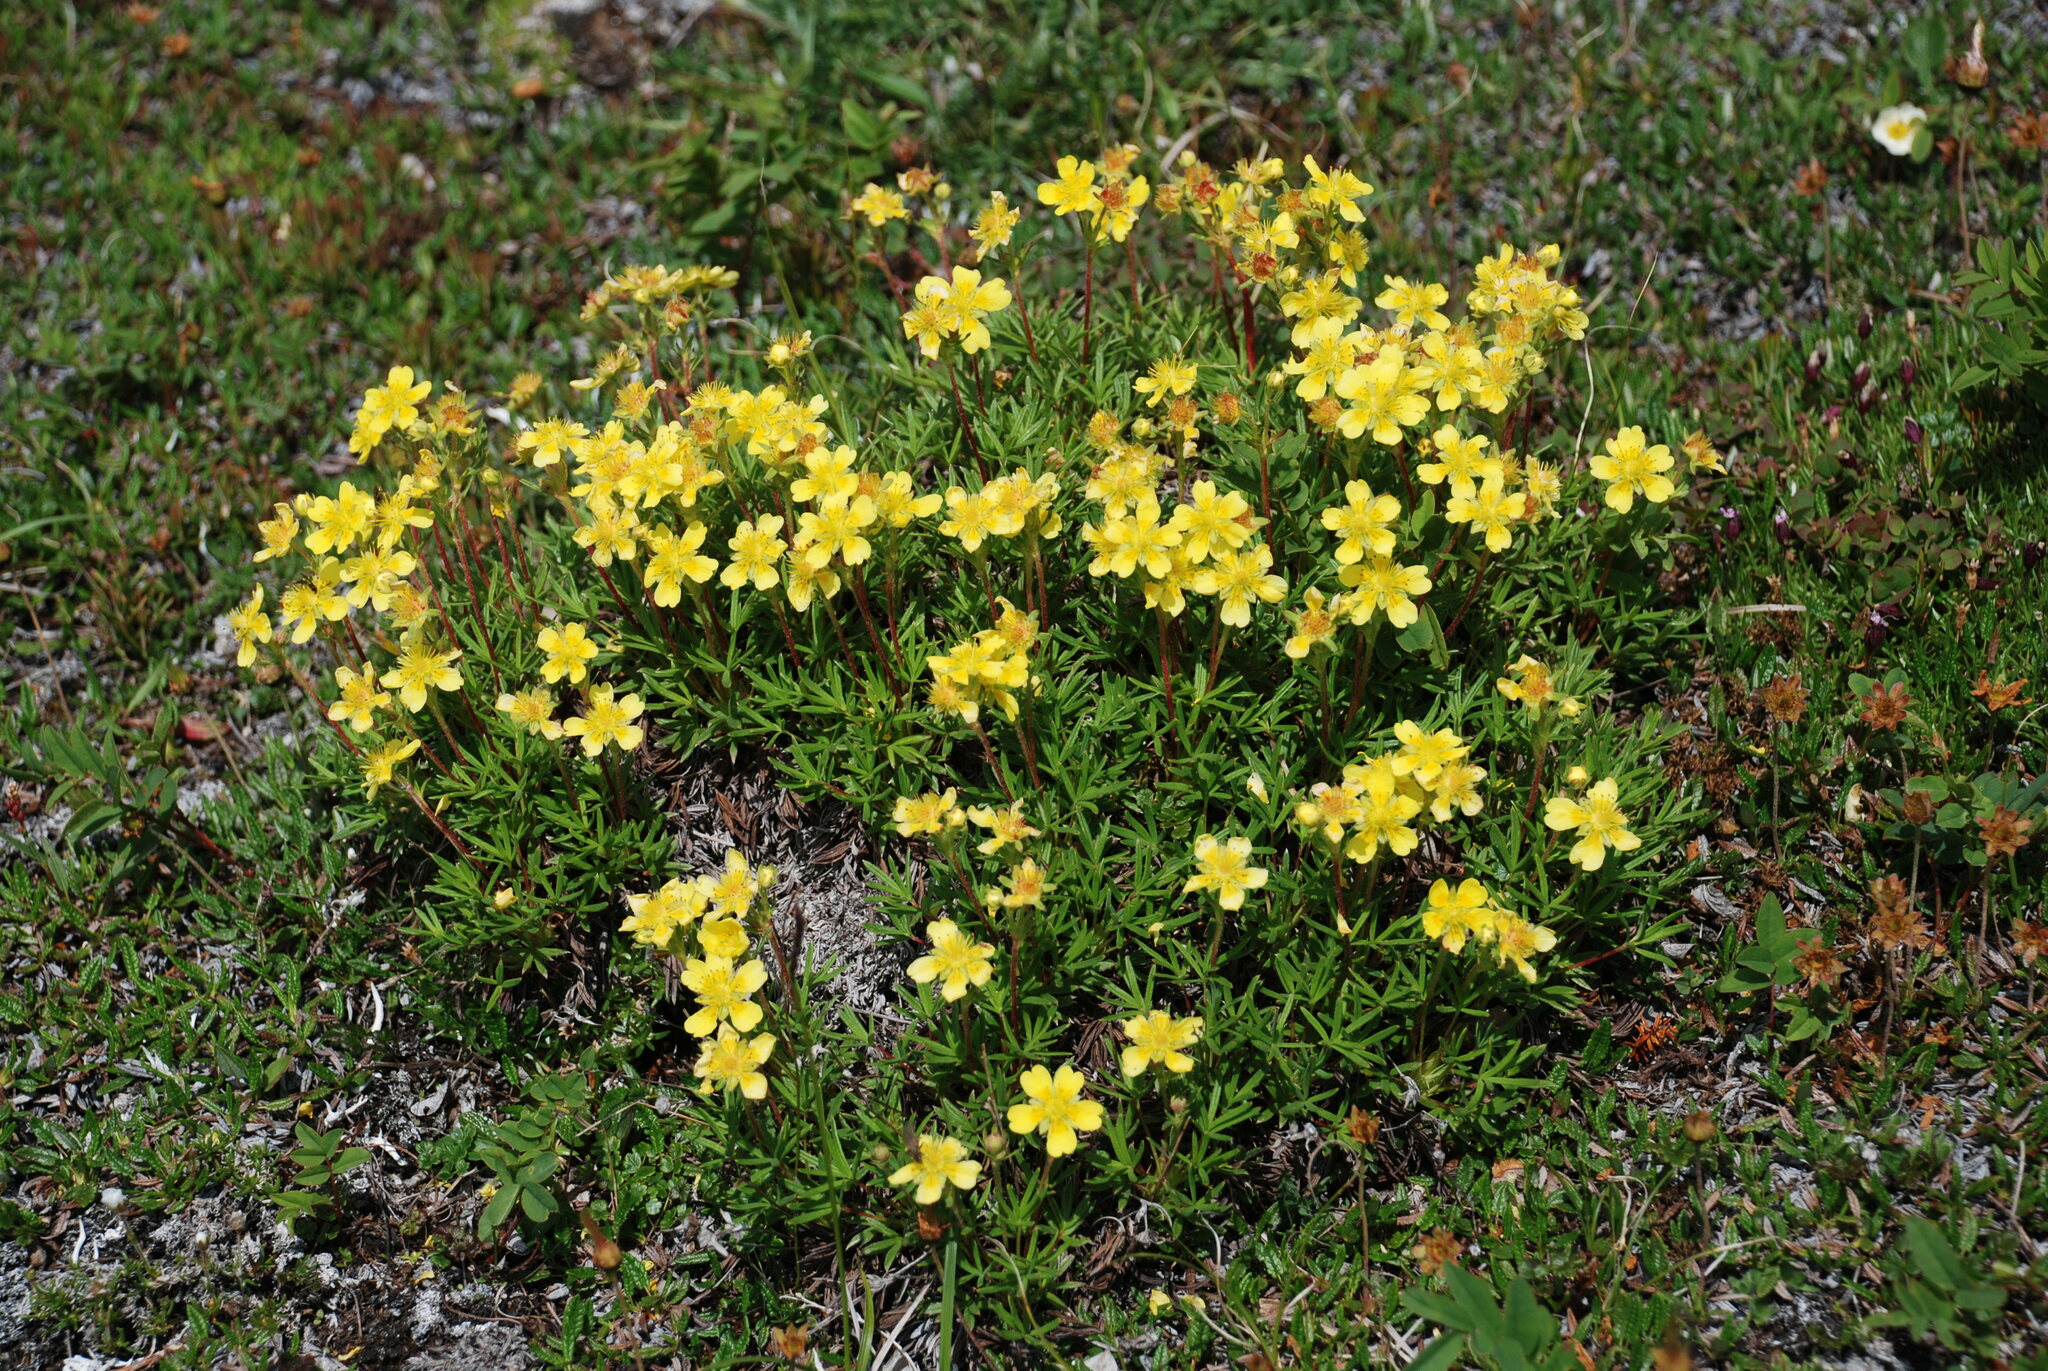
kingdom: Plantae
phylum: Tracheophyta
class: Magnoliopsida
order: Rosales
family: Rosaceae
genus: Potentilla
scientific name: Potentilla biflora
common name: Two-flowered cinquefoil
